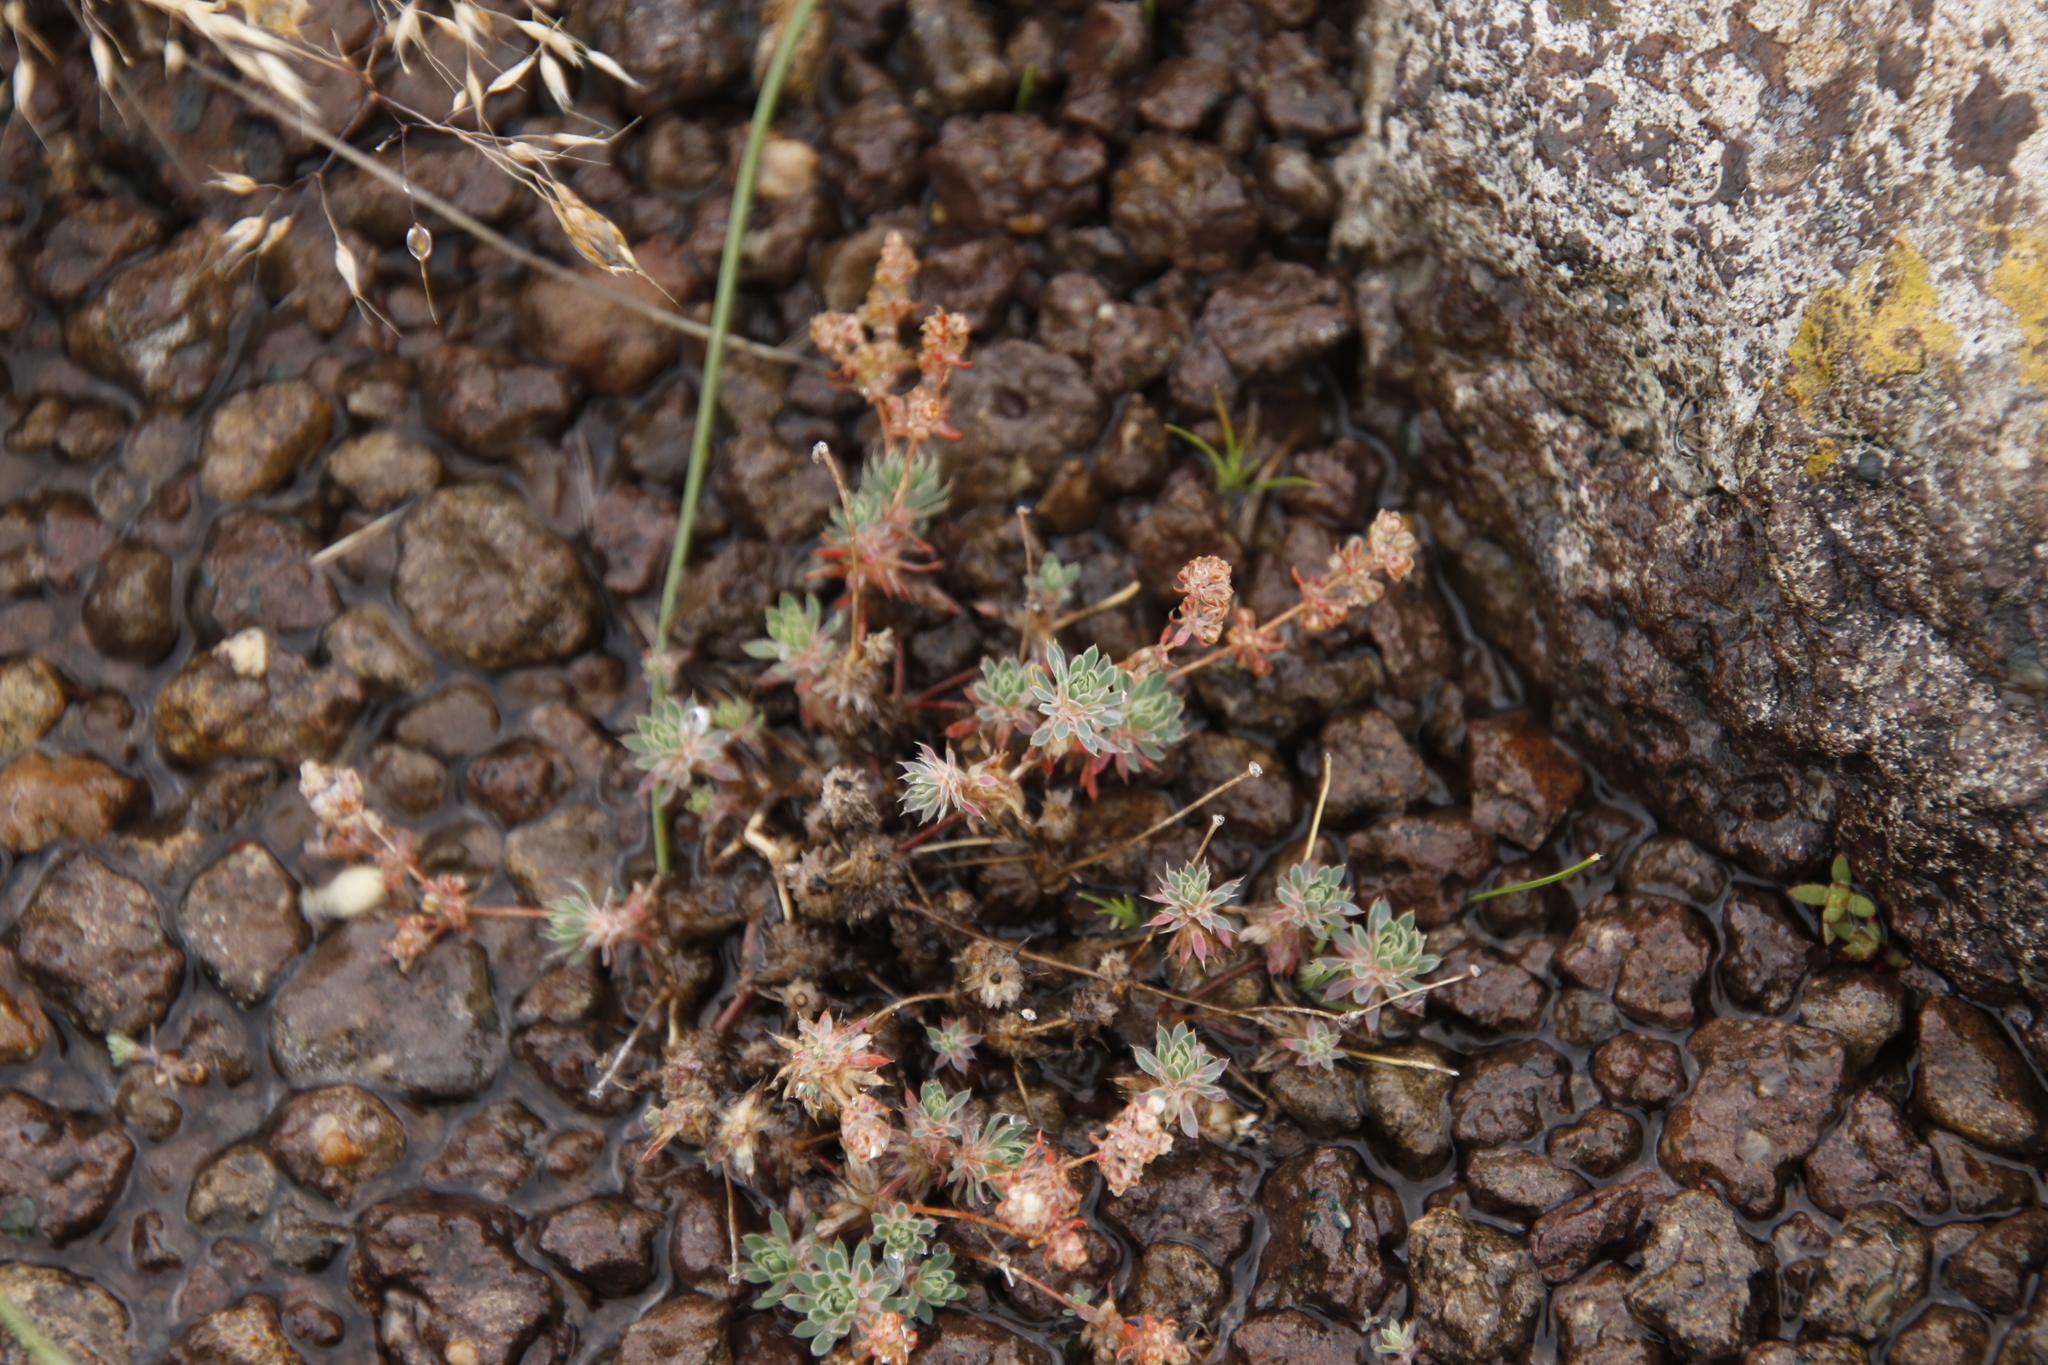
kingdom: Plantae
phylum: Tracheophyta
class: Magnoliopsida
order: Caryophyllales
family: Molluginaceae
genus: Psammotropha
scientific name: Psammotropha mucronata
